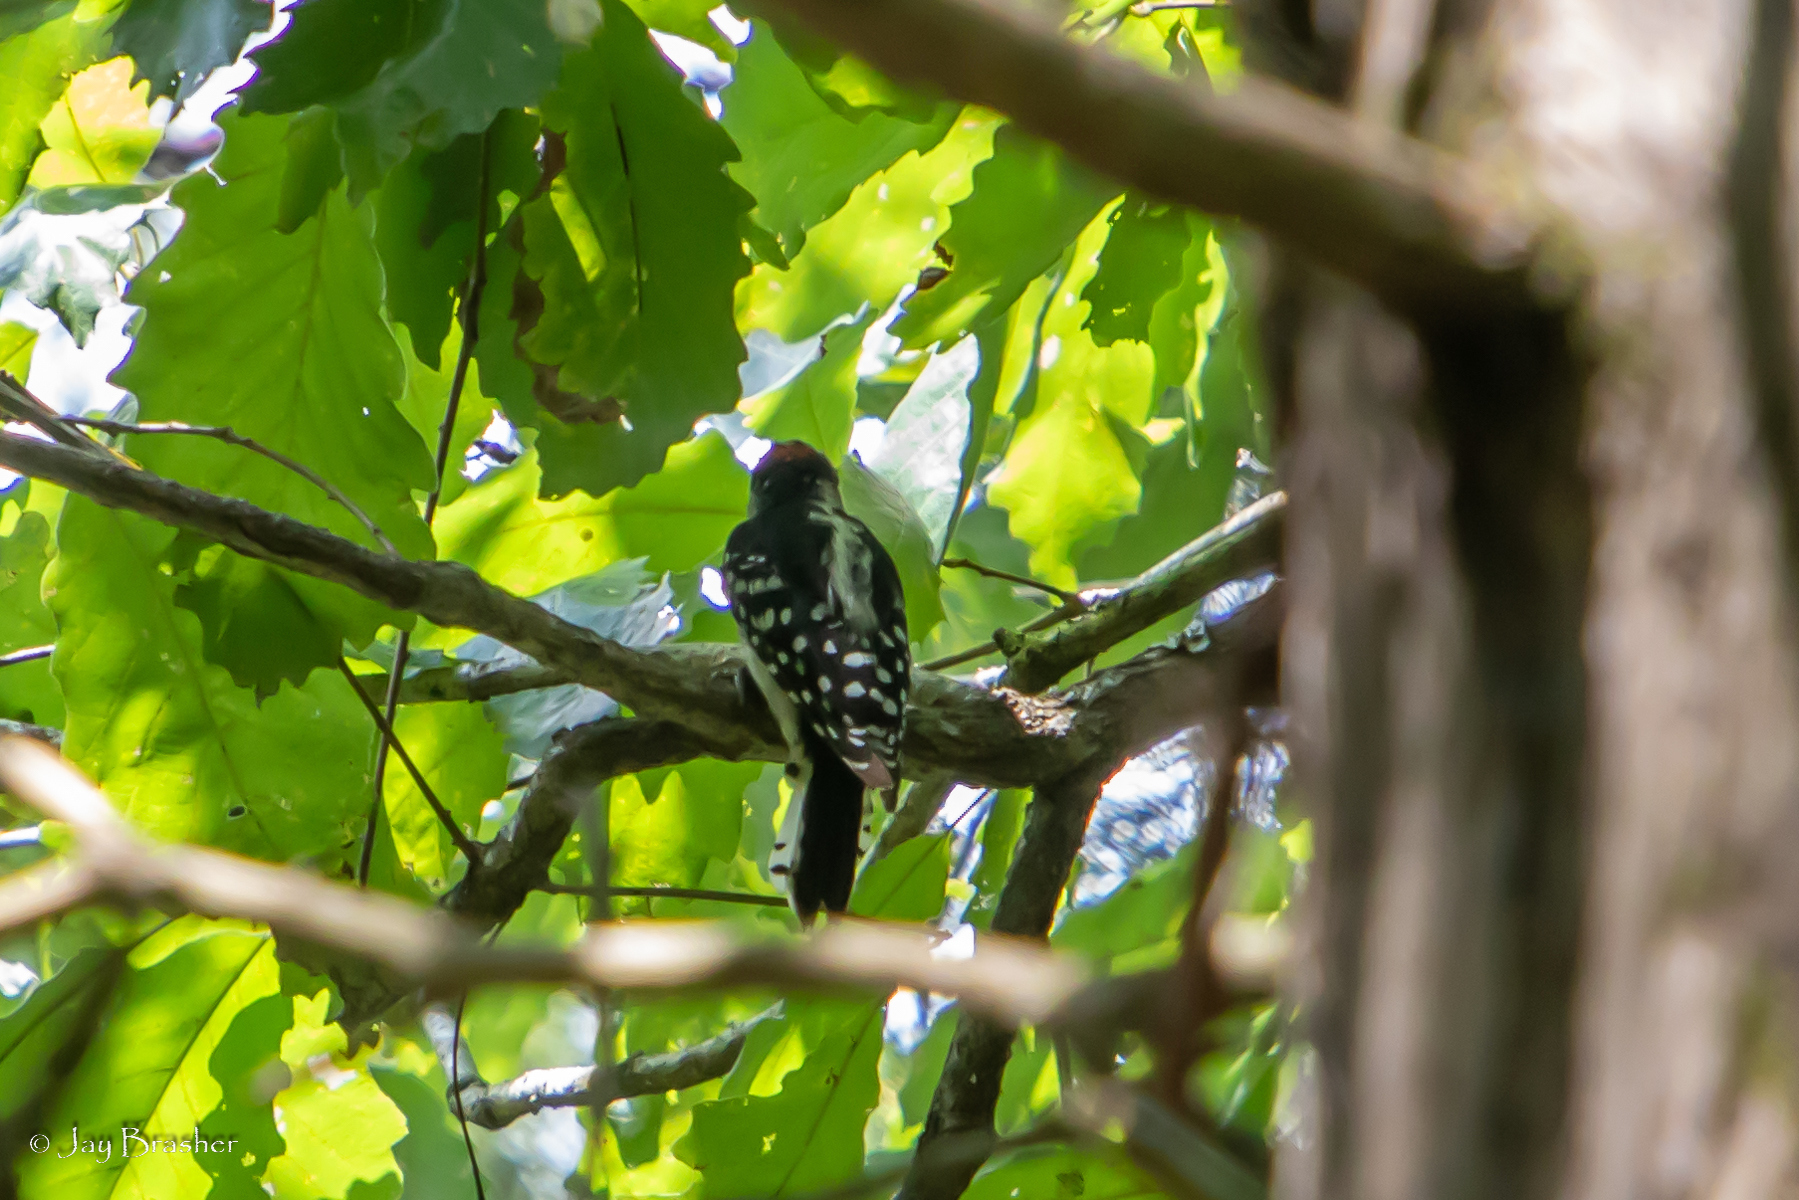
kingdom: Animalia
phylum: Chordata
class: Aves
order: Piciformes
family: Picidae
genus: Dryobates
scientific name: Dryobates pubescens
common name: Downy woodpecker
